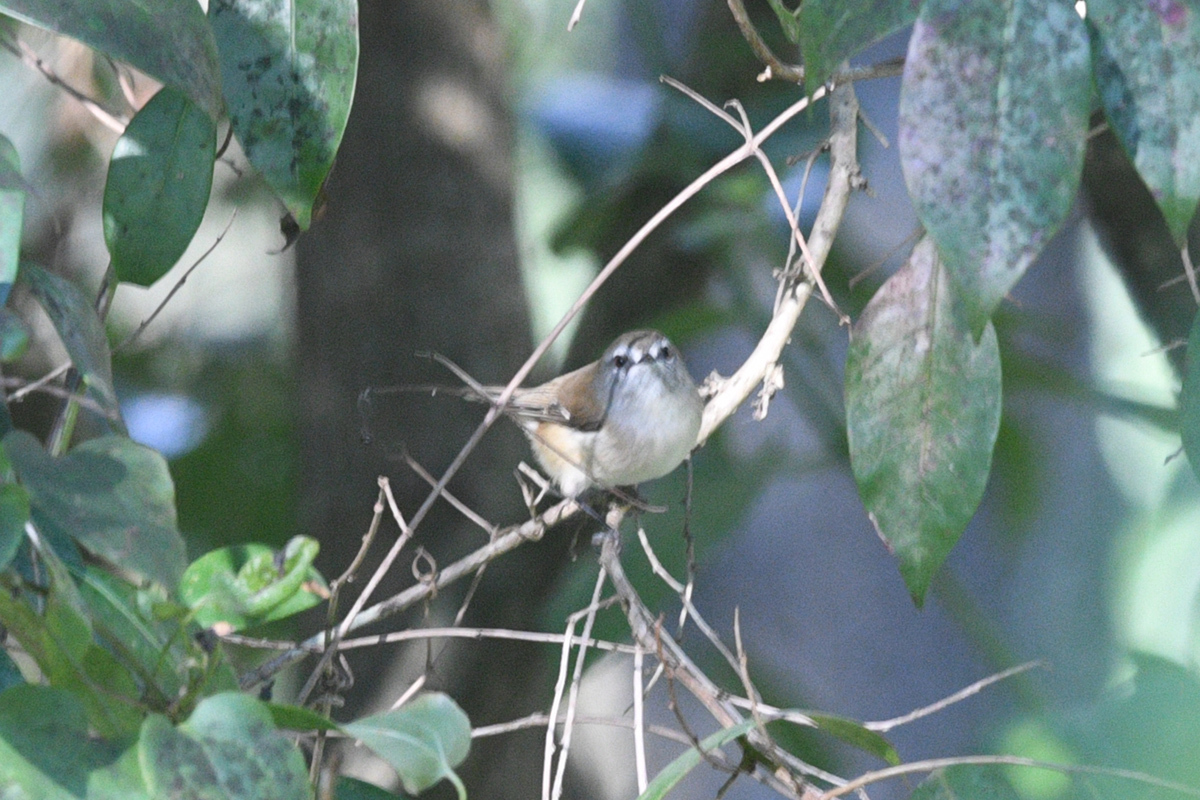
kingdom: Animalia
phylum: Chordata
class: Aves
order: Passeriformes
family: Acanthizidae
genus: Gerygone
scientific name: Gerygone mouki
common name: Brown gerygone
